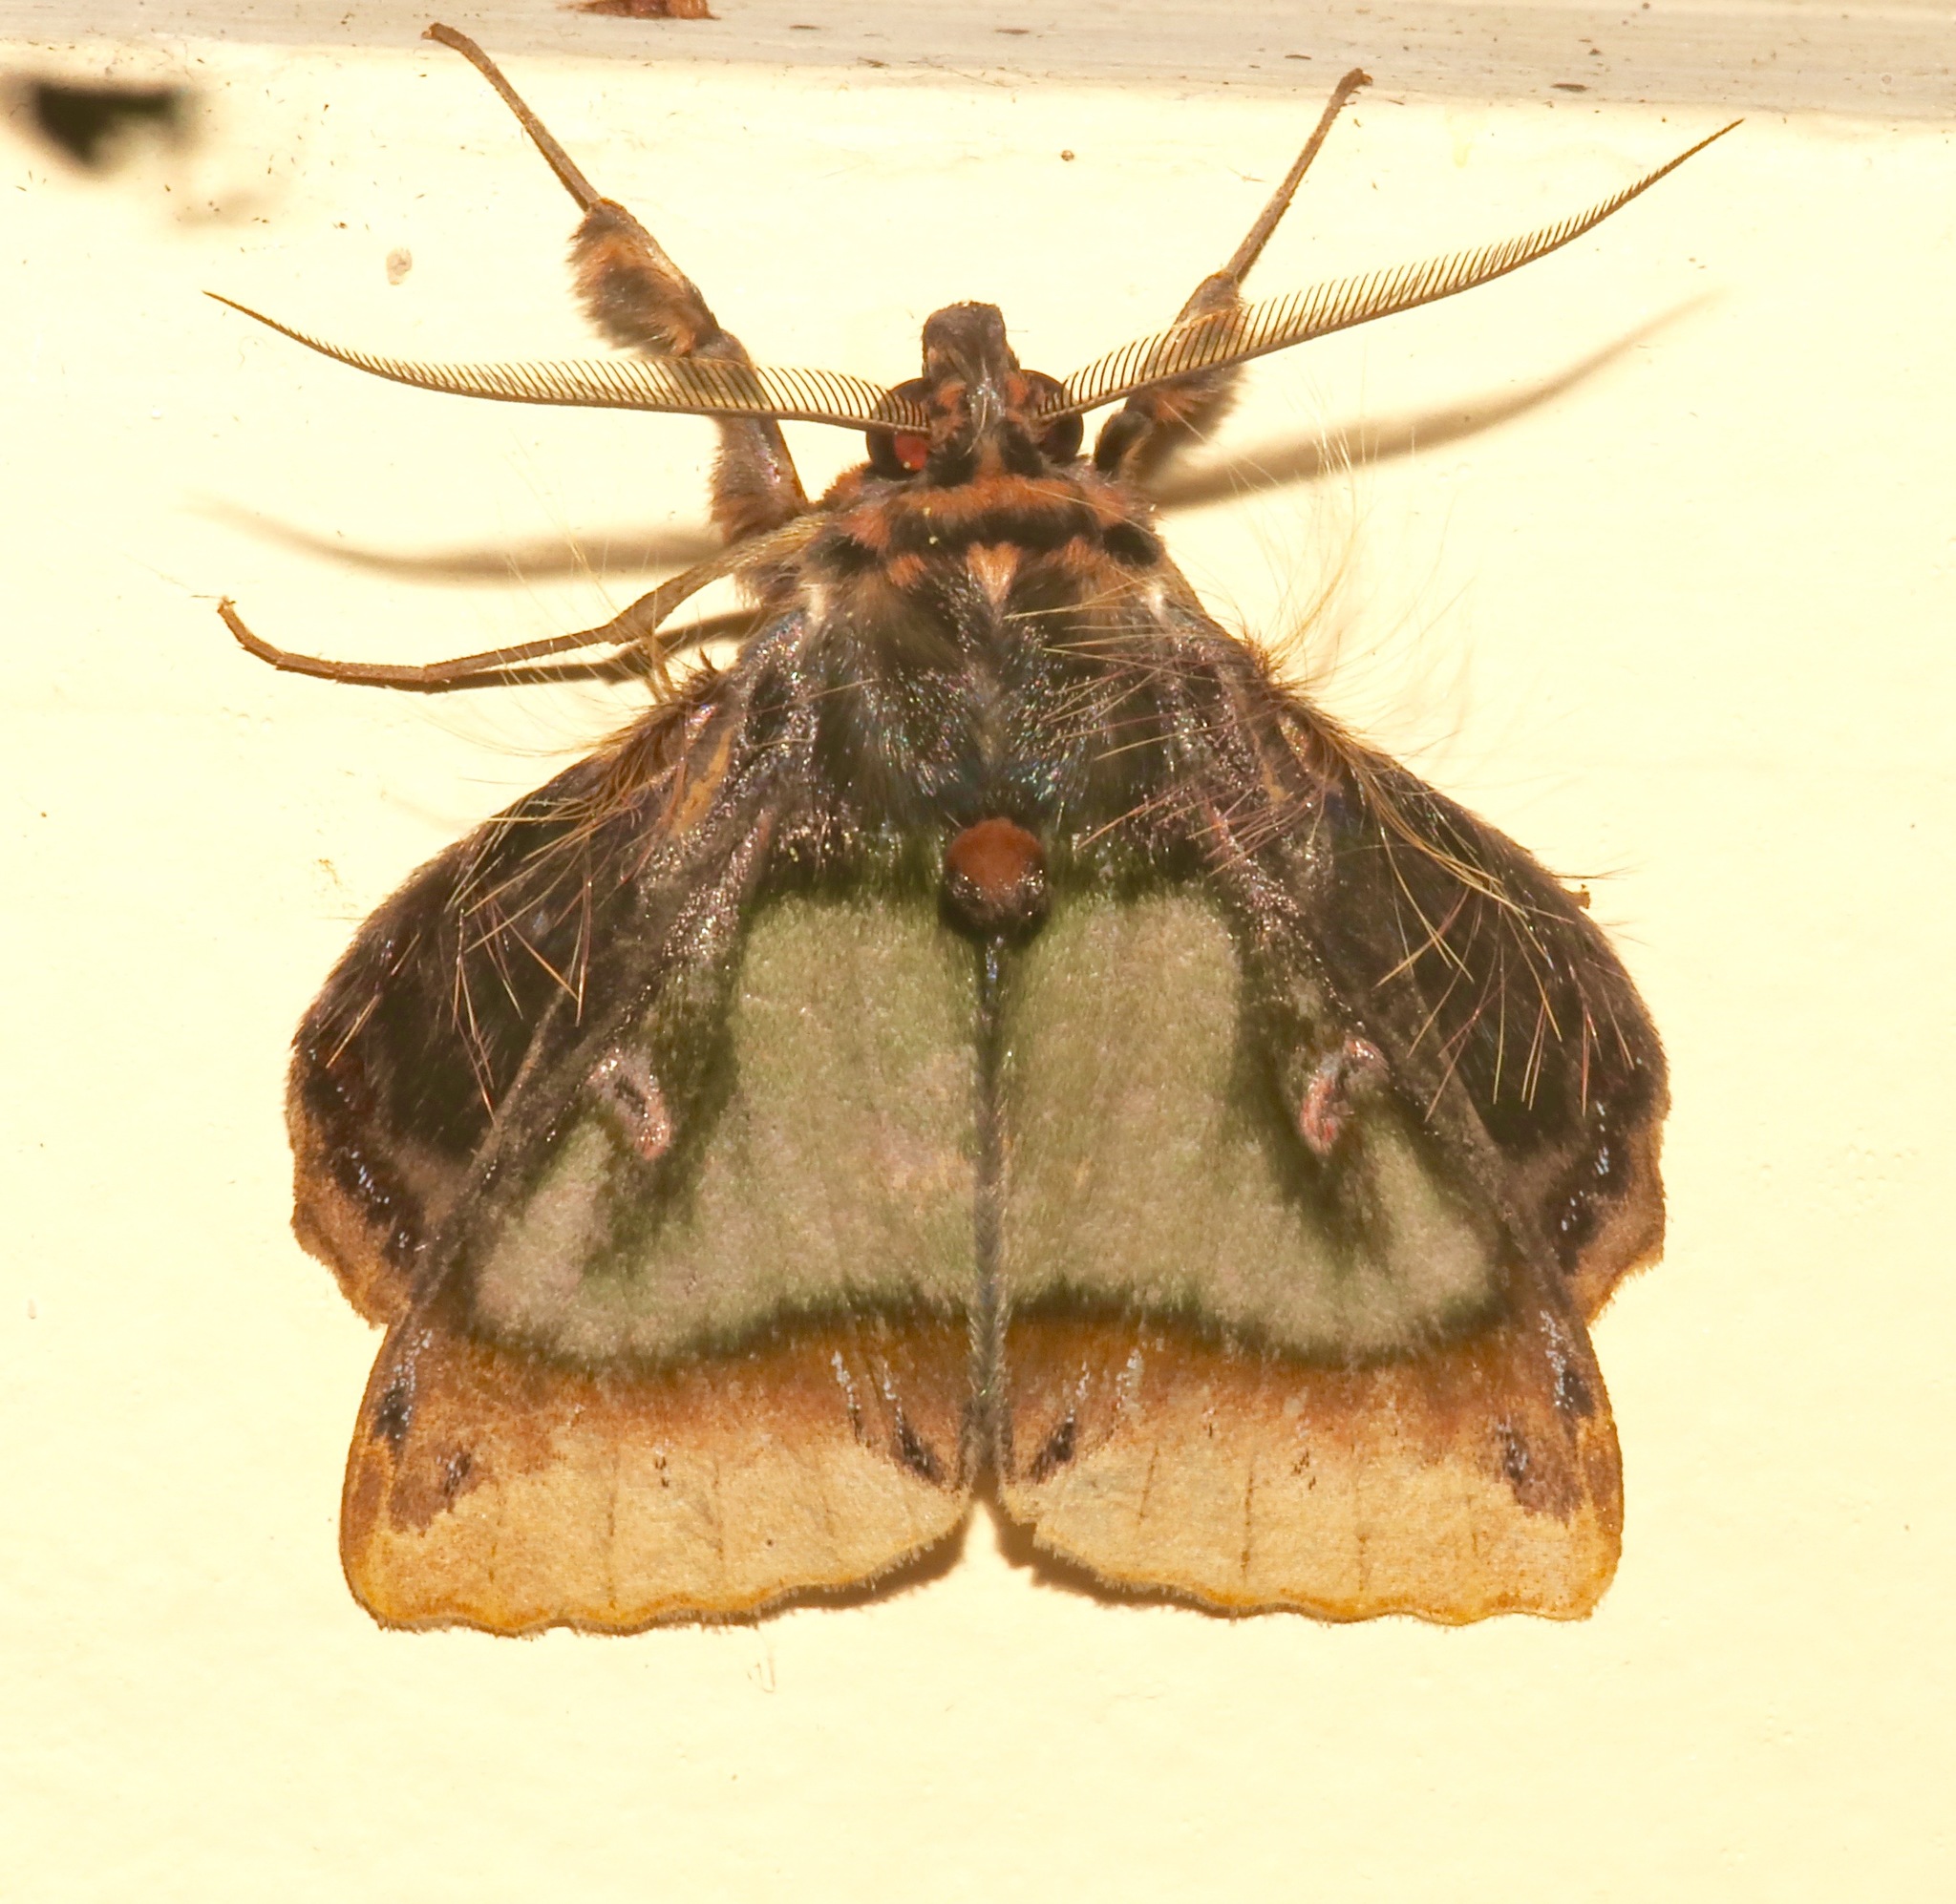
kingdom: Animalia
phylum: Arthropoda
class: Insecta
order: Lepidoptera
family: Erebidae
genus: Ceroctena
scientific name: Ceroctena amynta
